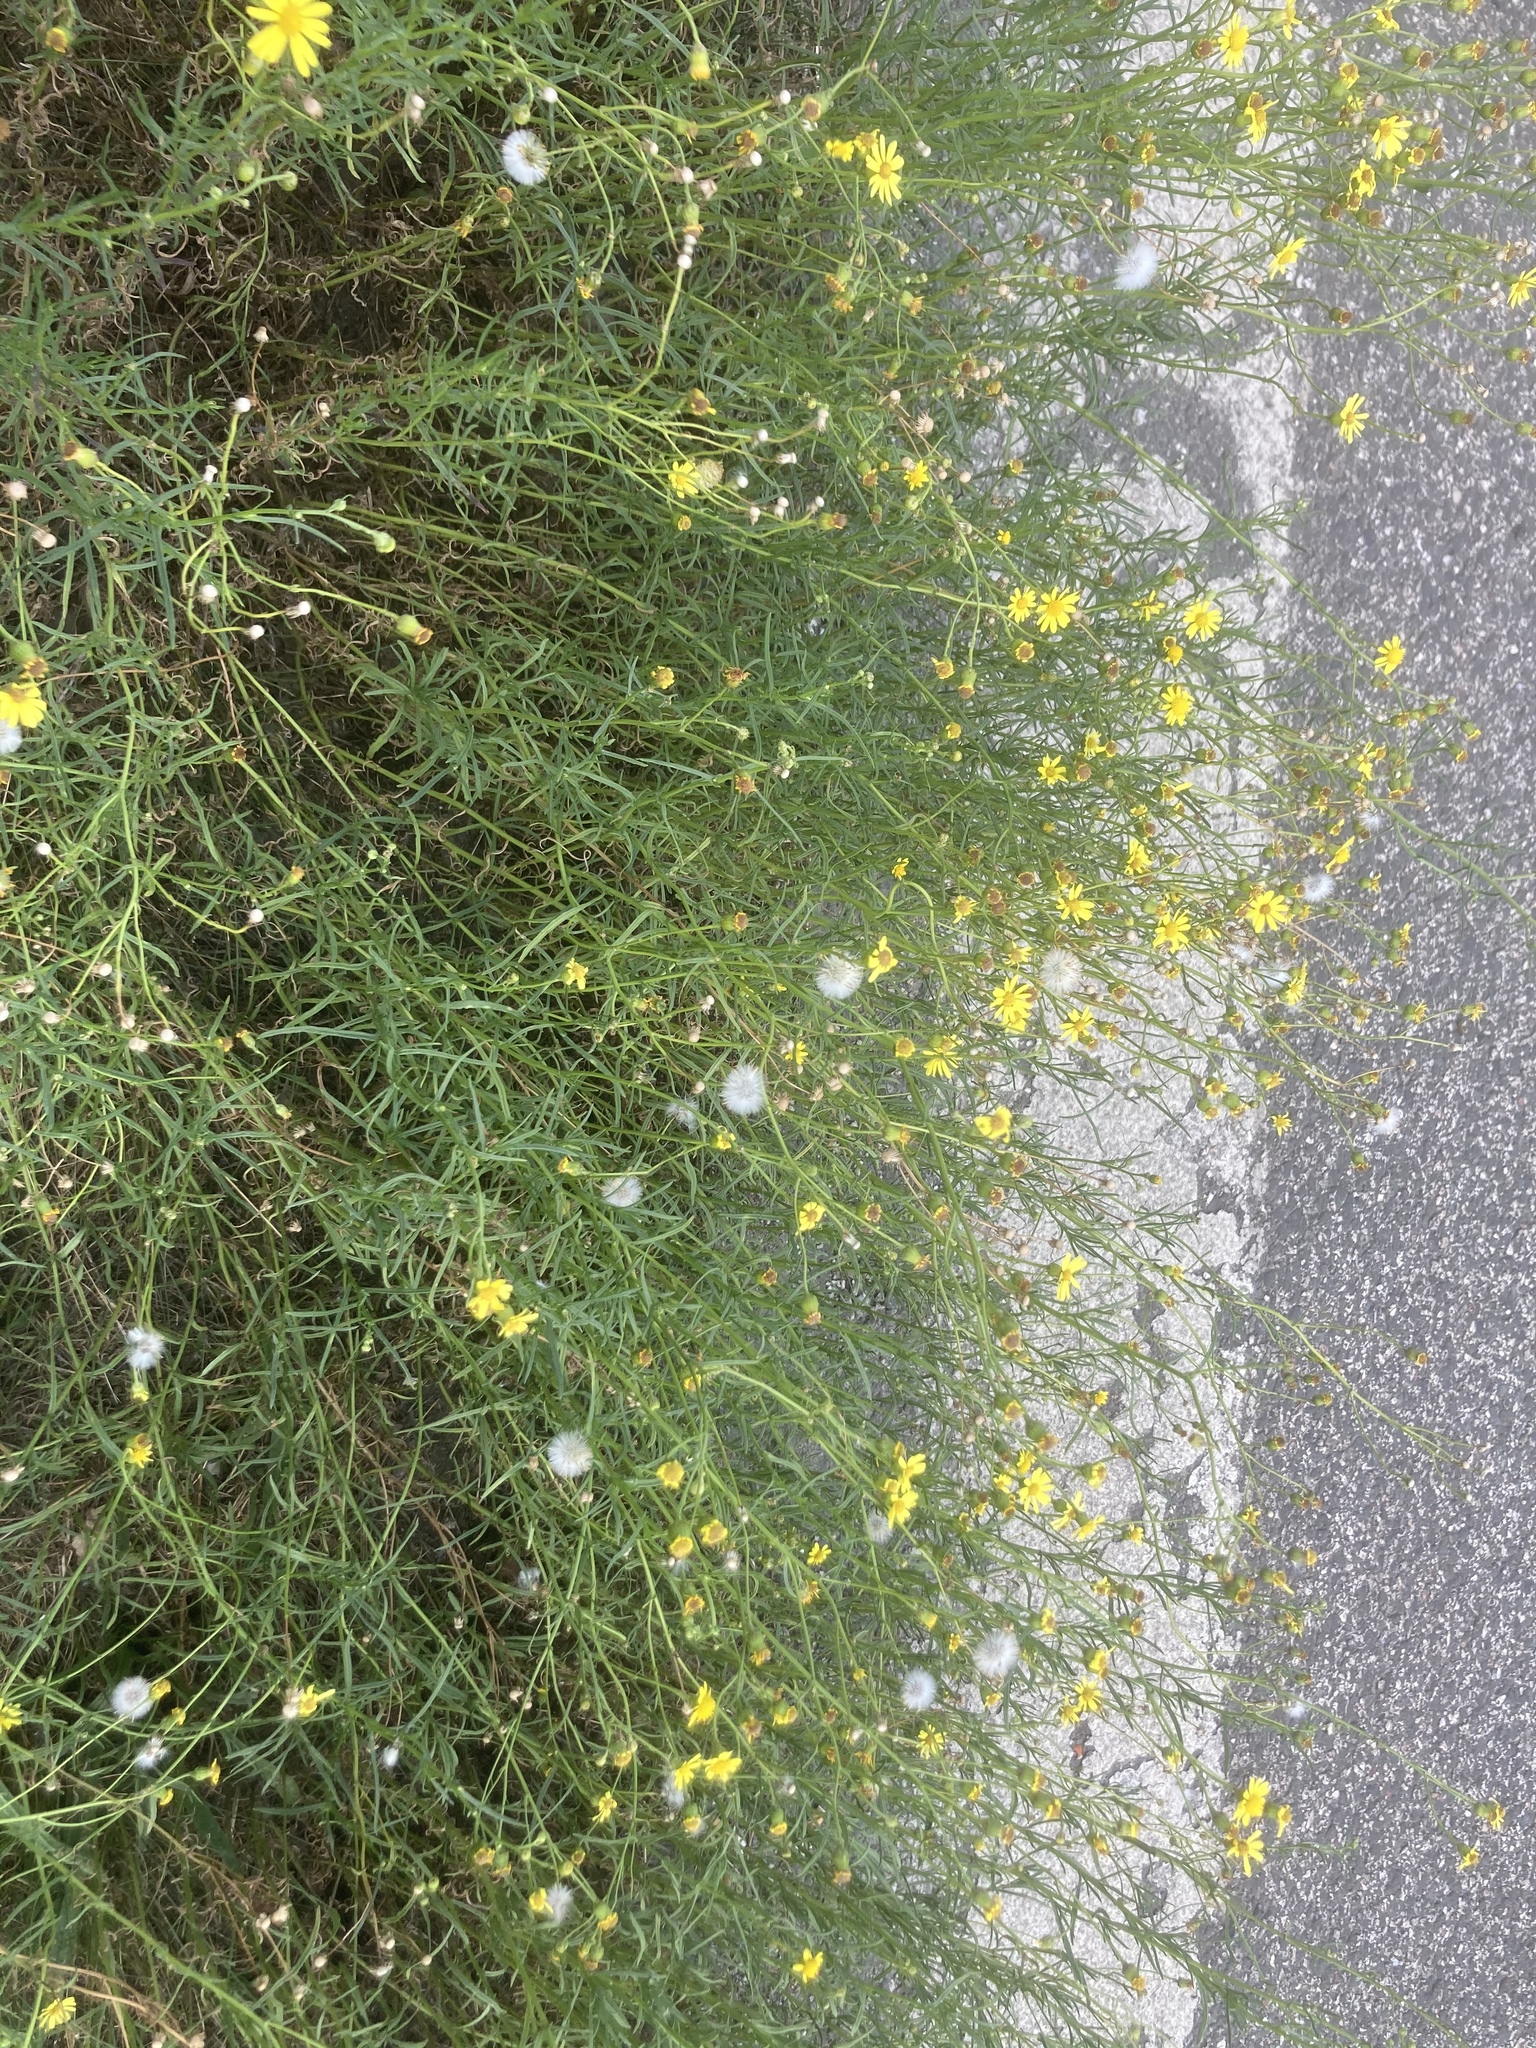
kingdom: Plantae
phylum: Tracheophyta
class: Magnoliopsida
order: Asterales
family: Asteraceae
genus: Senecio
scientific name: Senecio inaequidens
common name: Narrow-leaved ragwort
